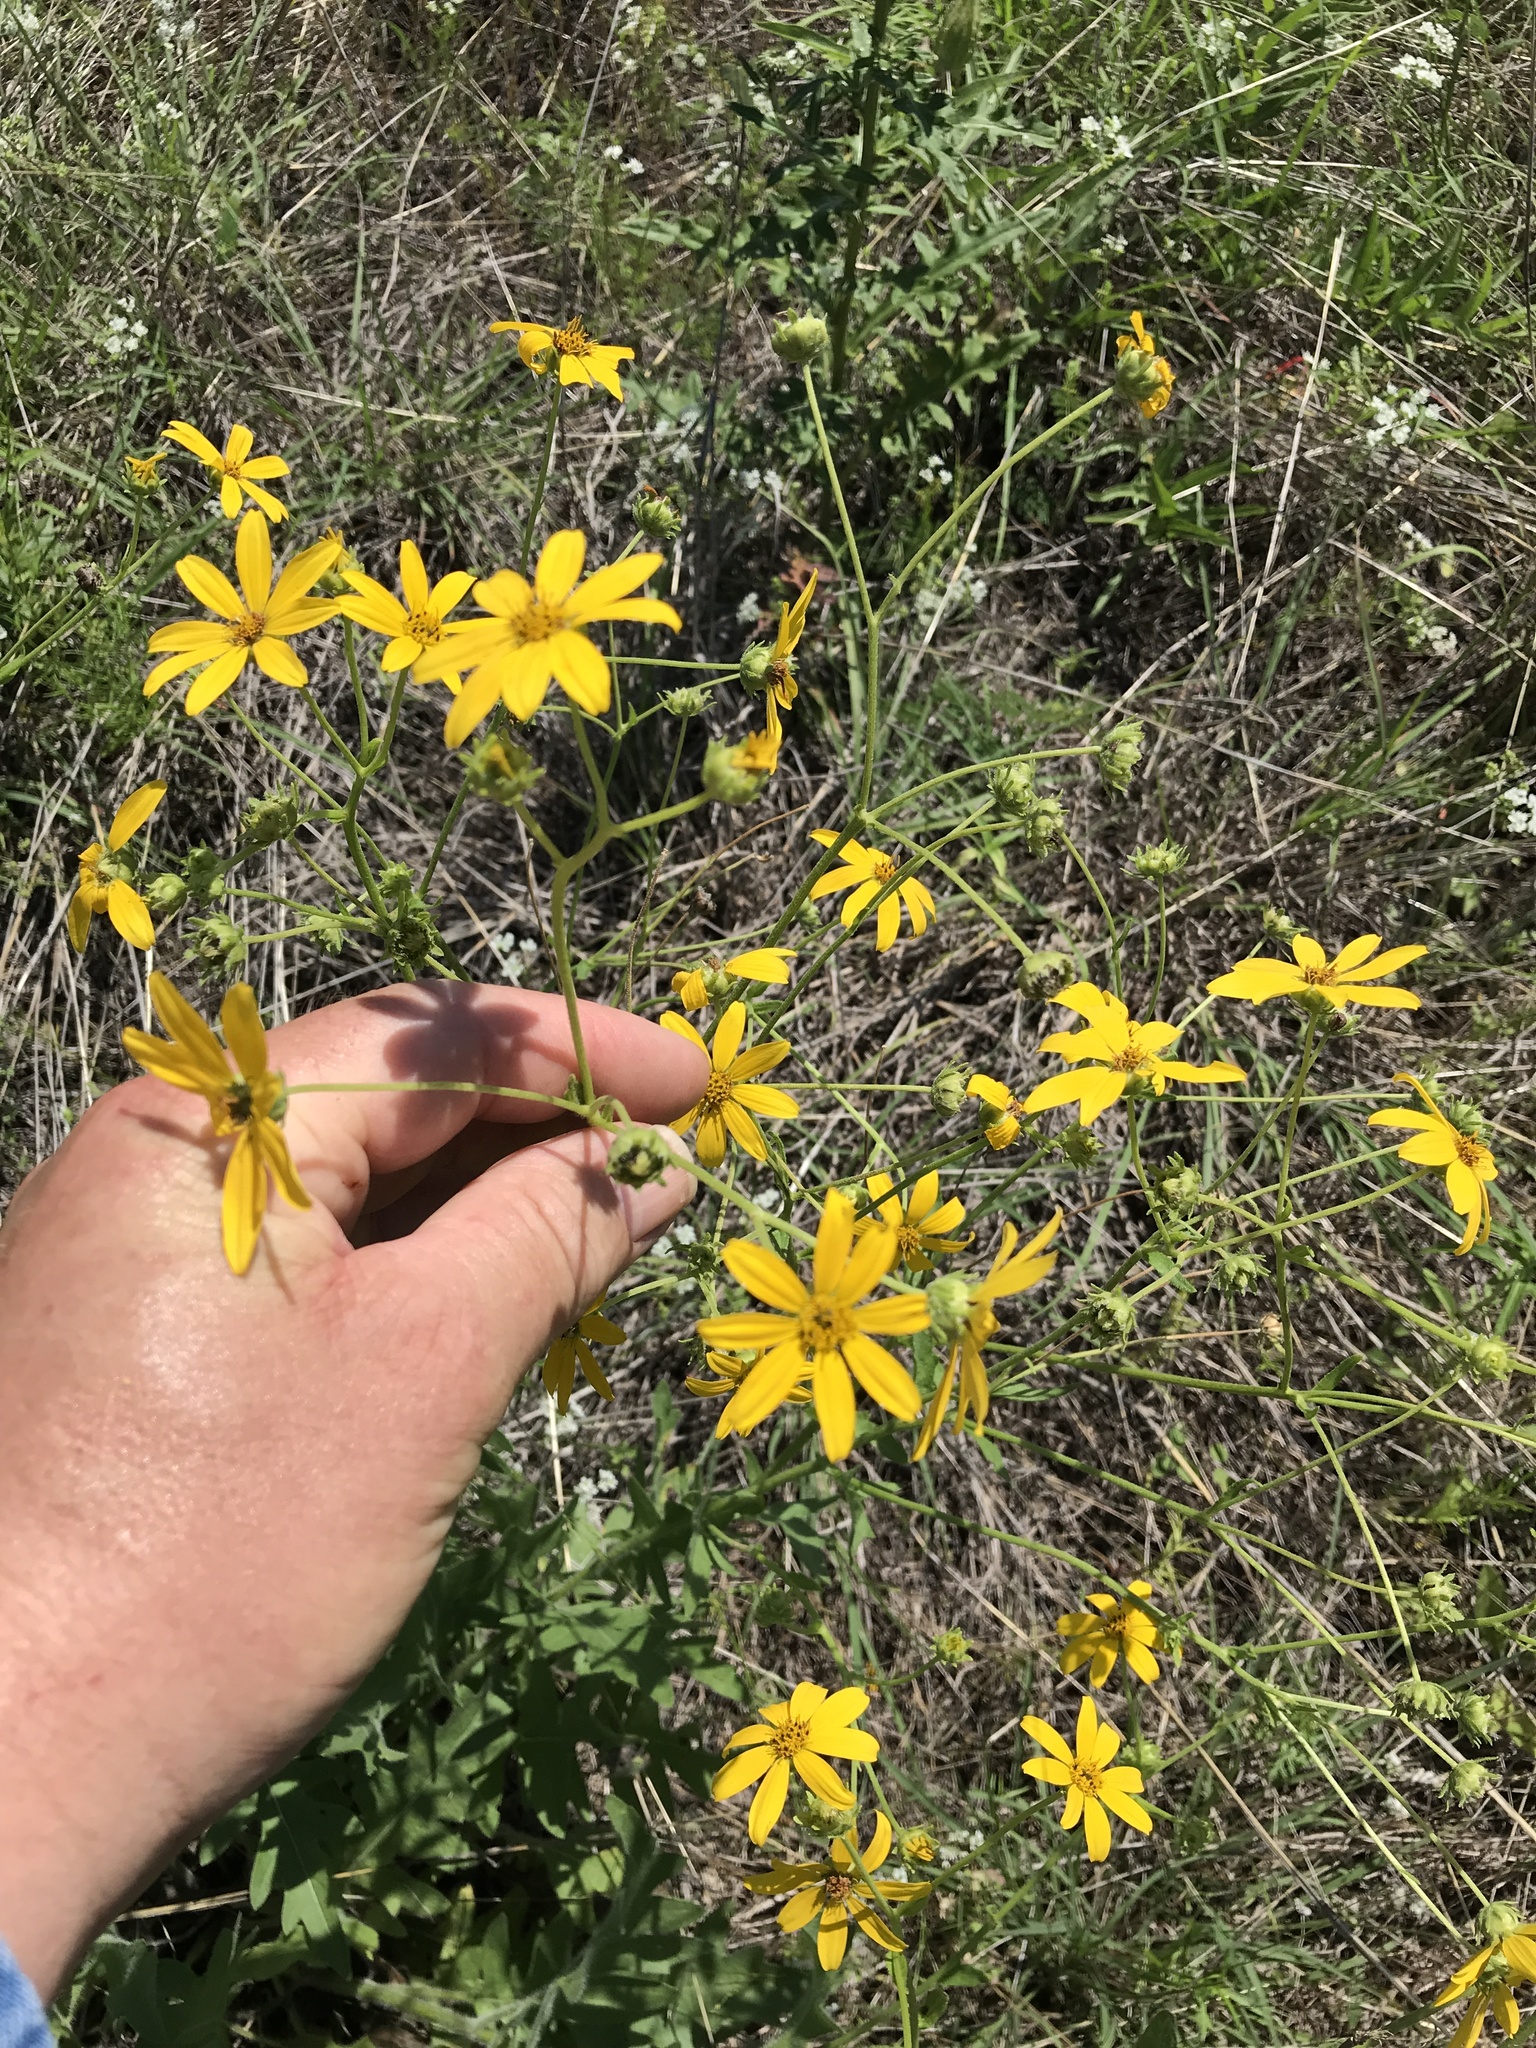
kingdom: Plantae
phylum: Tracheophyta
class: Magnoliopsida
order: Asterales
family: Asteraceae
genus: Engelmannia
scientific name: Engelmannia peristenia
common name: Engelmann's daisy
